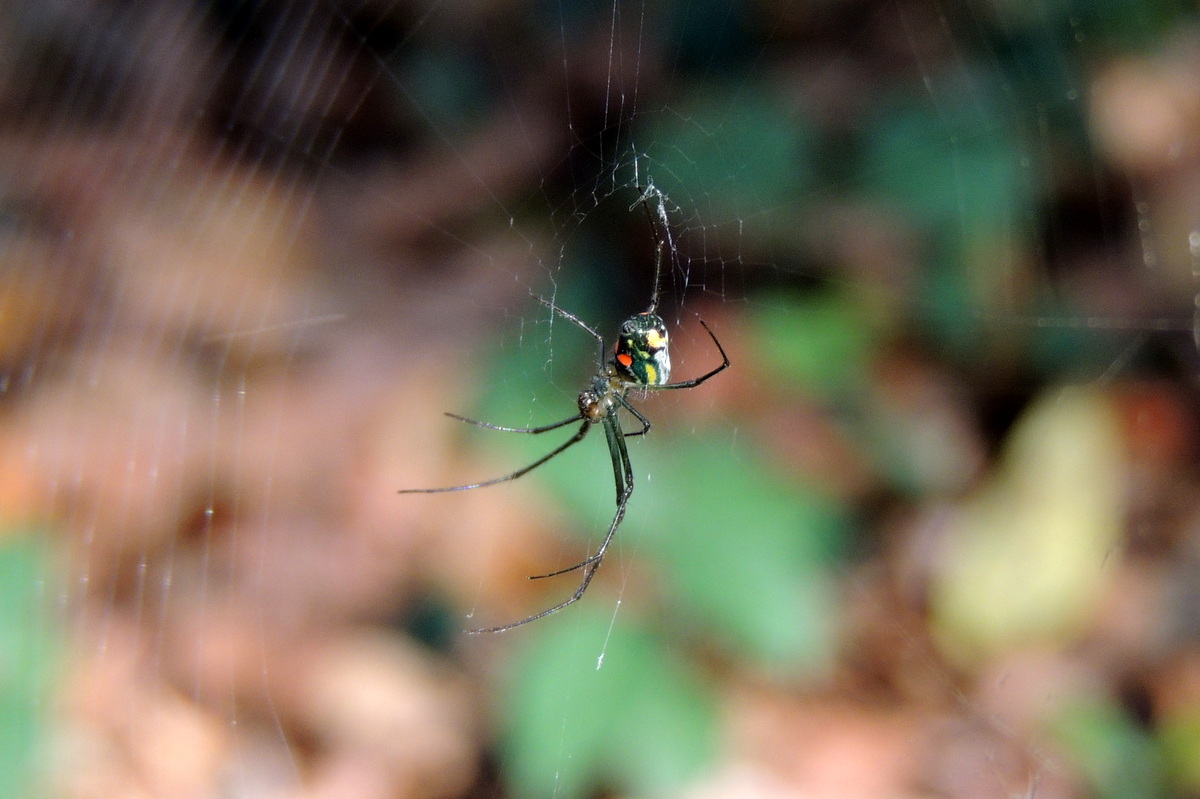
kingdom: Animalia
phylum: Arthropoda
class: Arachnida
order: Araneae
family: Tetragnathidae
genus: Leucauge
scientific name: Leucauge argyrobapta
